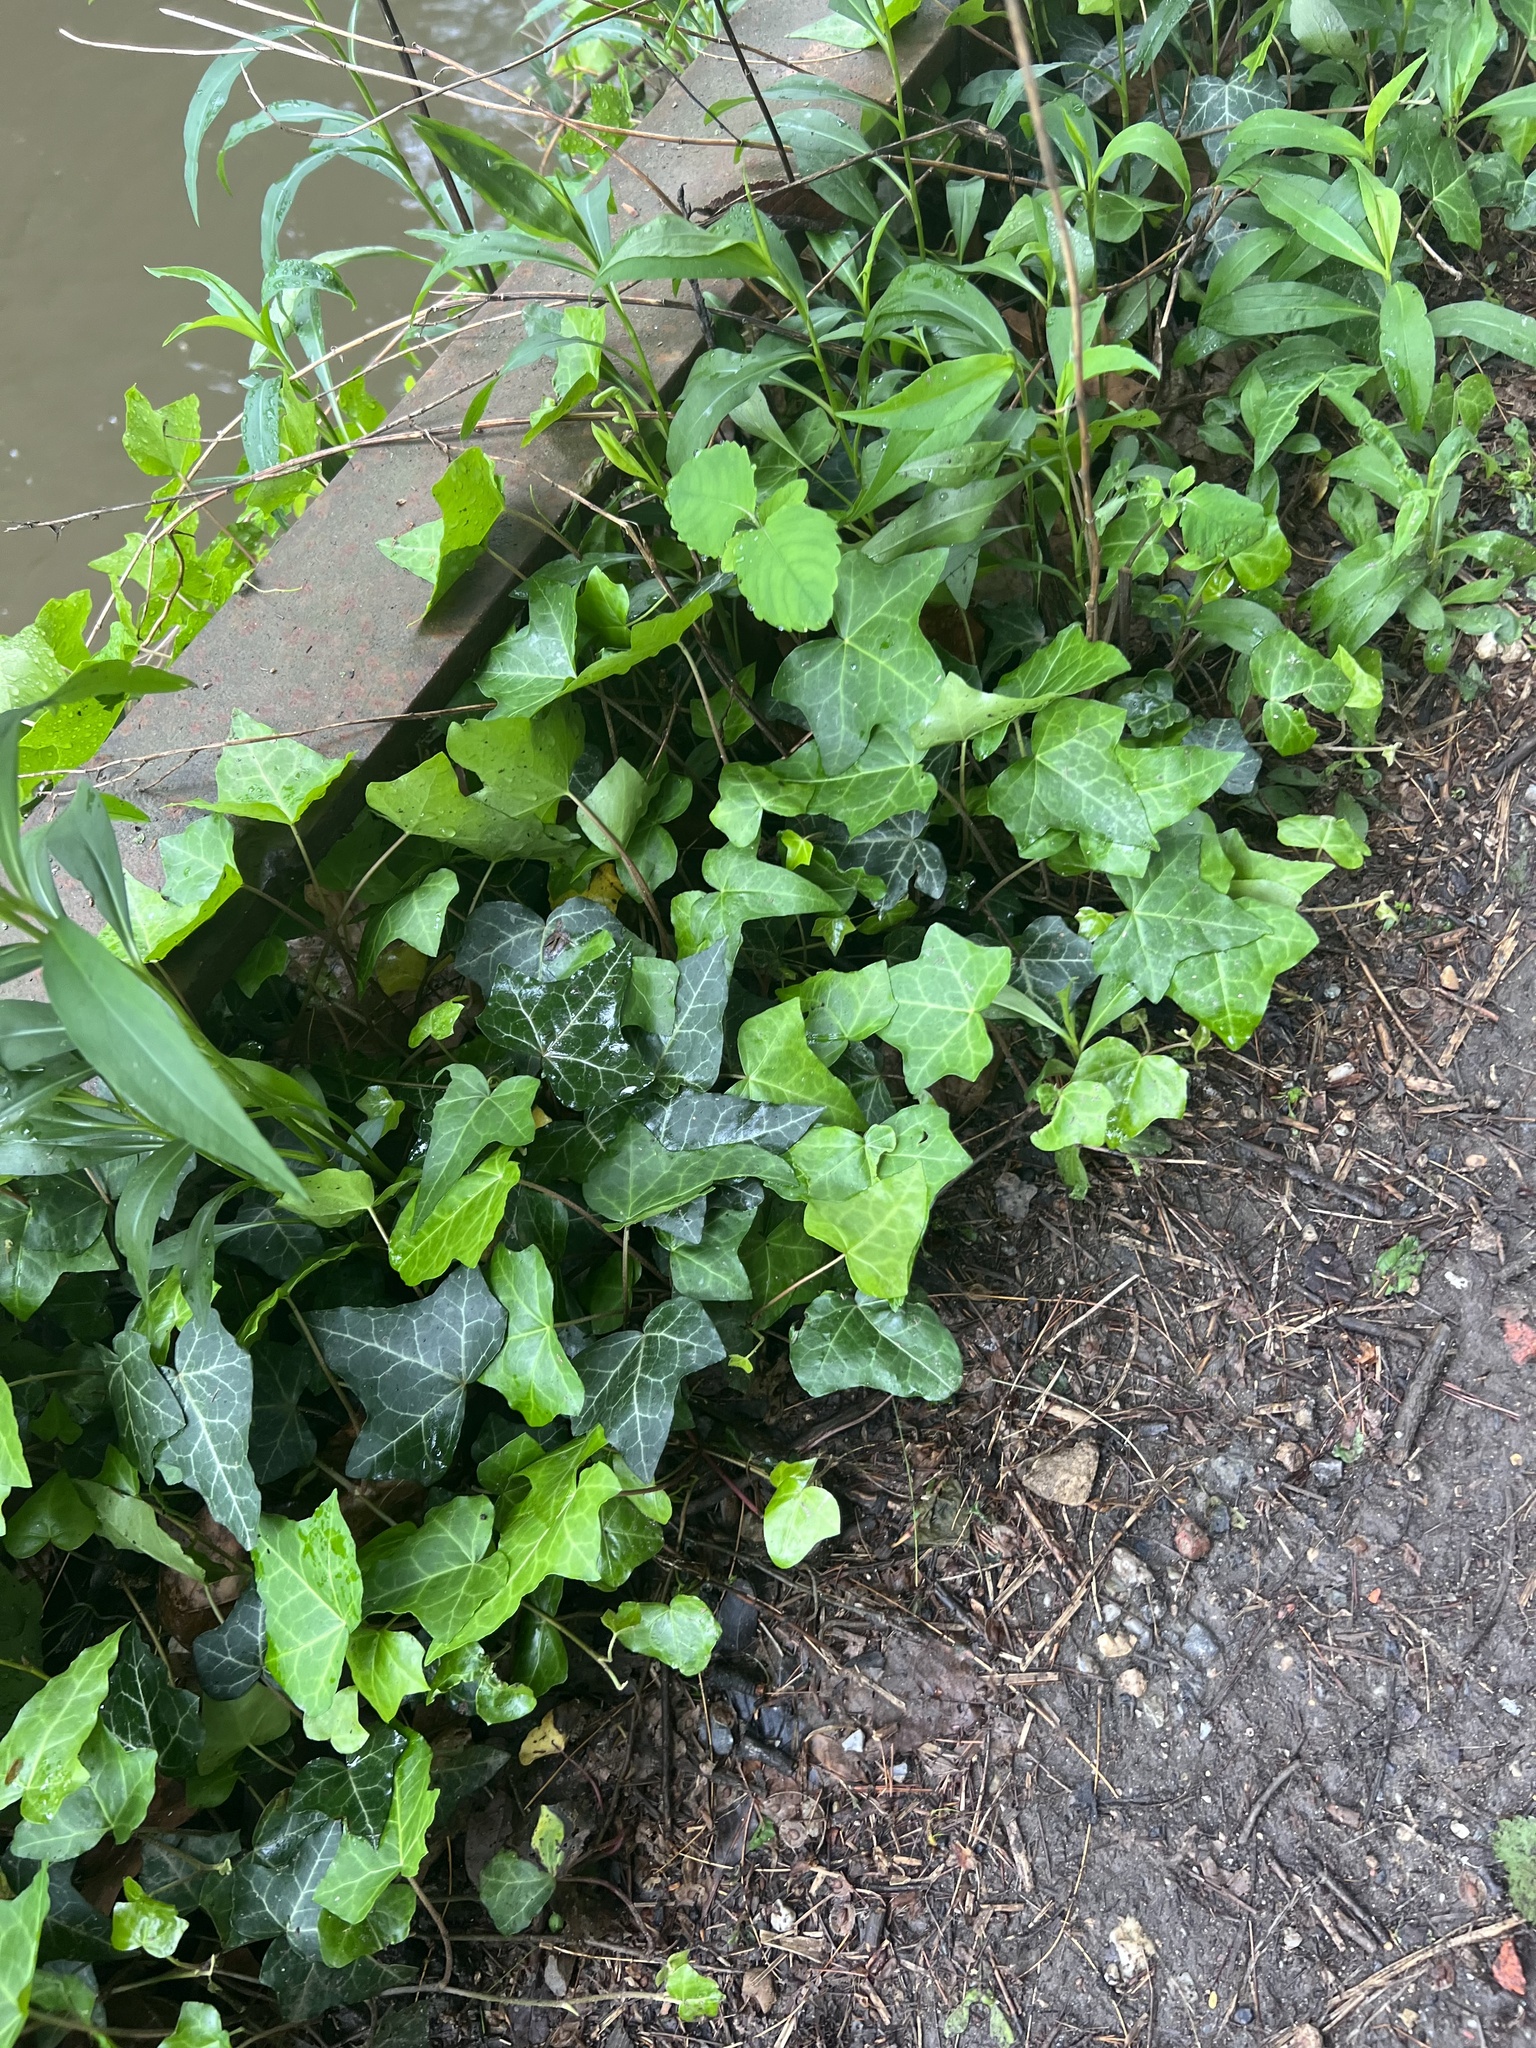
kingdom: Plantae
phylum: Tracheophyta
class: Magnoliopsida
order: Apiales
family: Araliaceae
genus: Hedera
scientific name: Hedera helix
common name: Ivy
